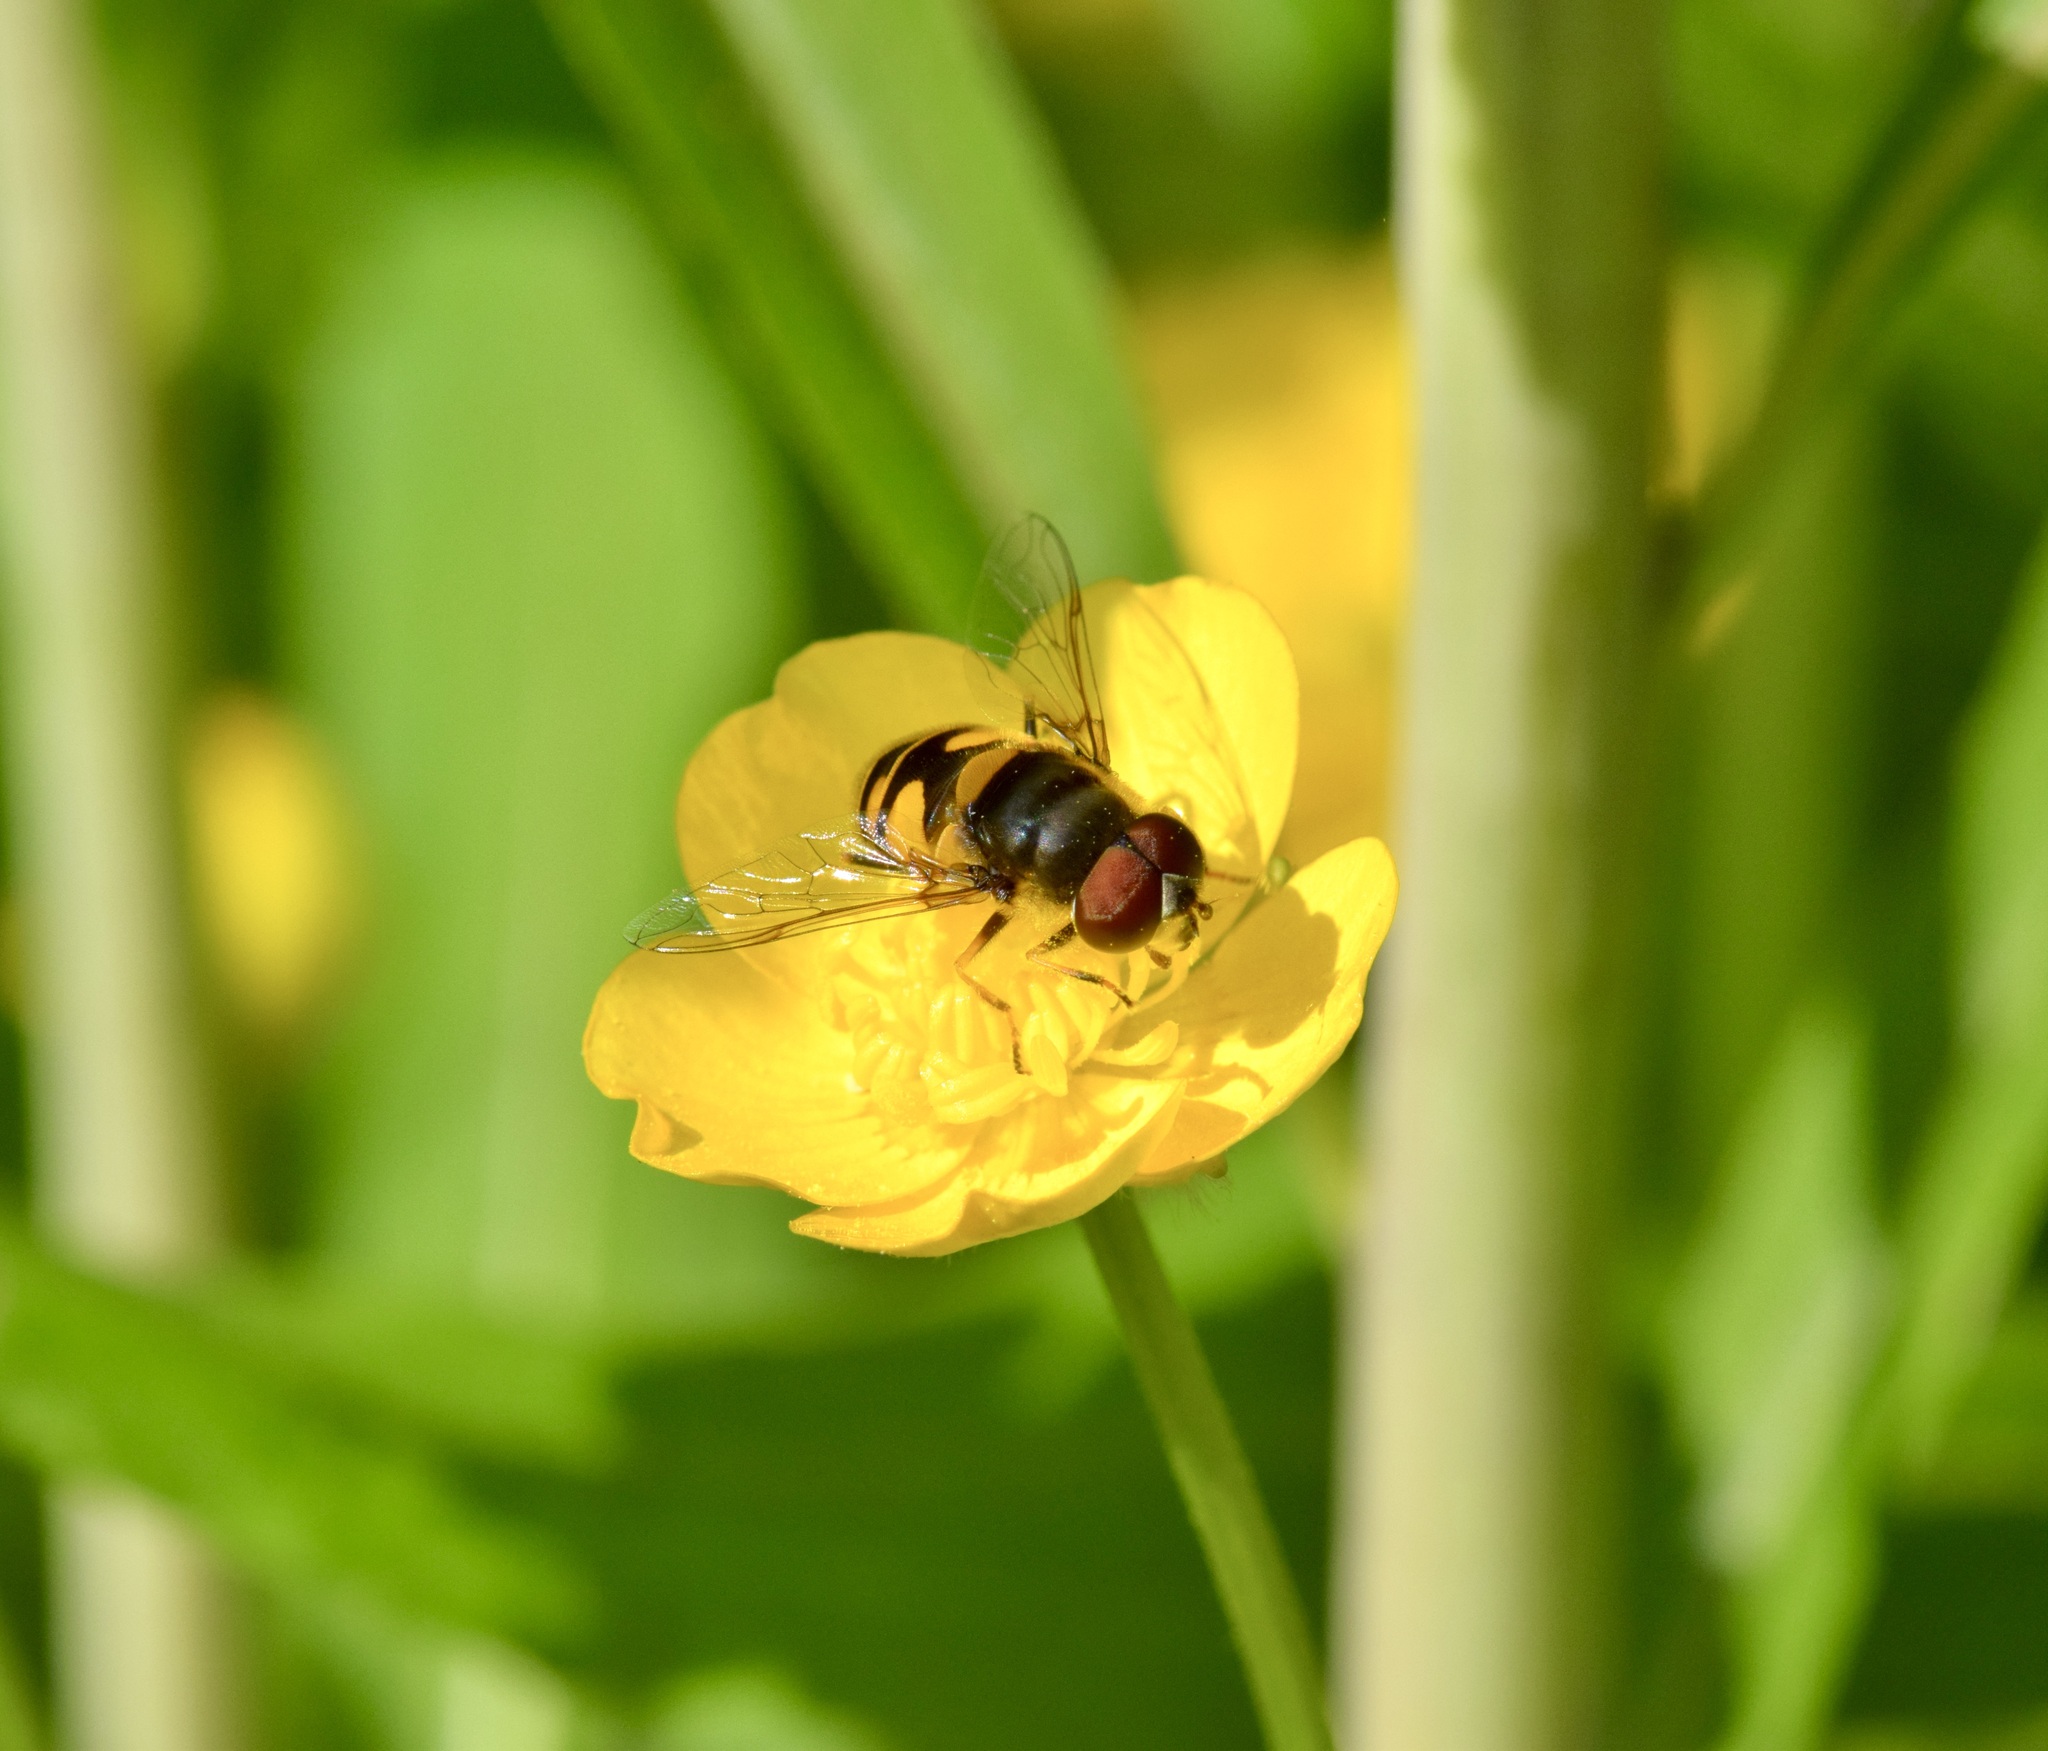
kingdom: Animalia
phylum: Arthropoda
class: Insecta
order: Diptera
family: Syrphidae
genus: Eristalis
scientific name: Eristalis transversa
